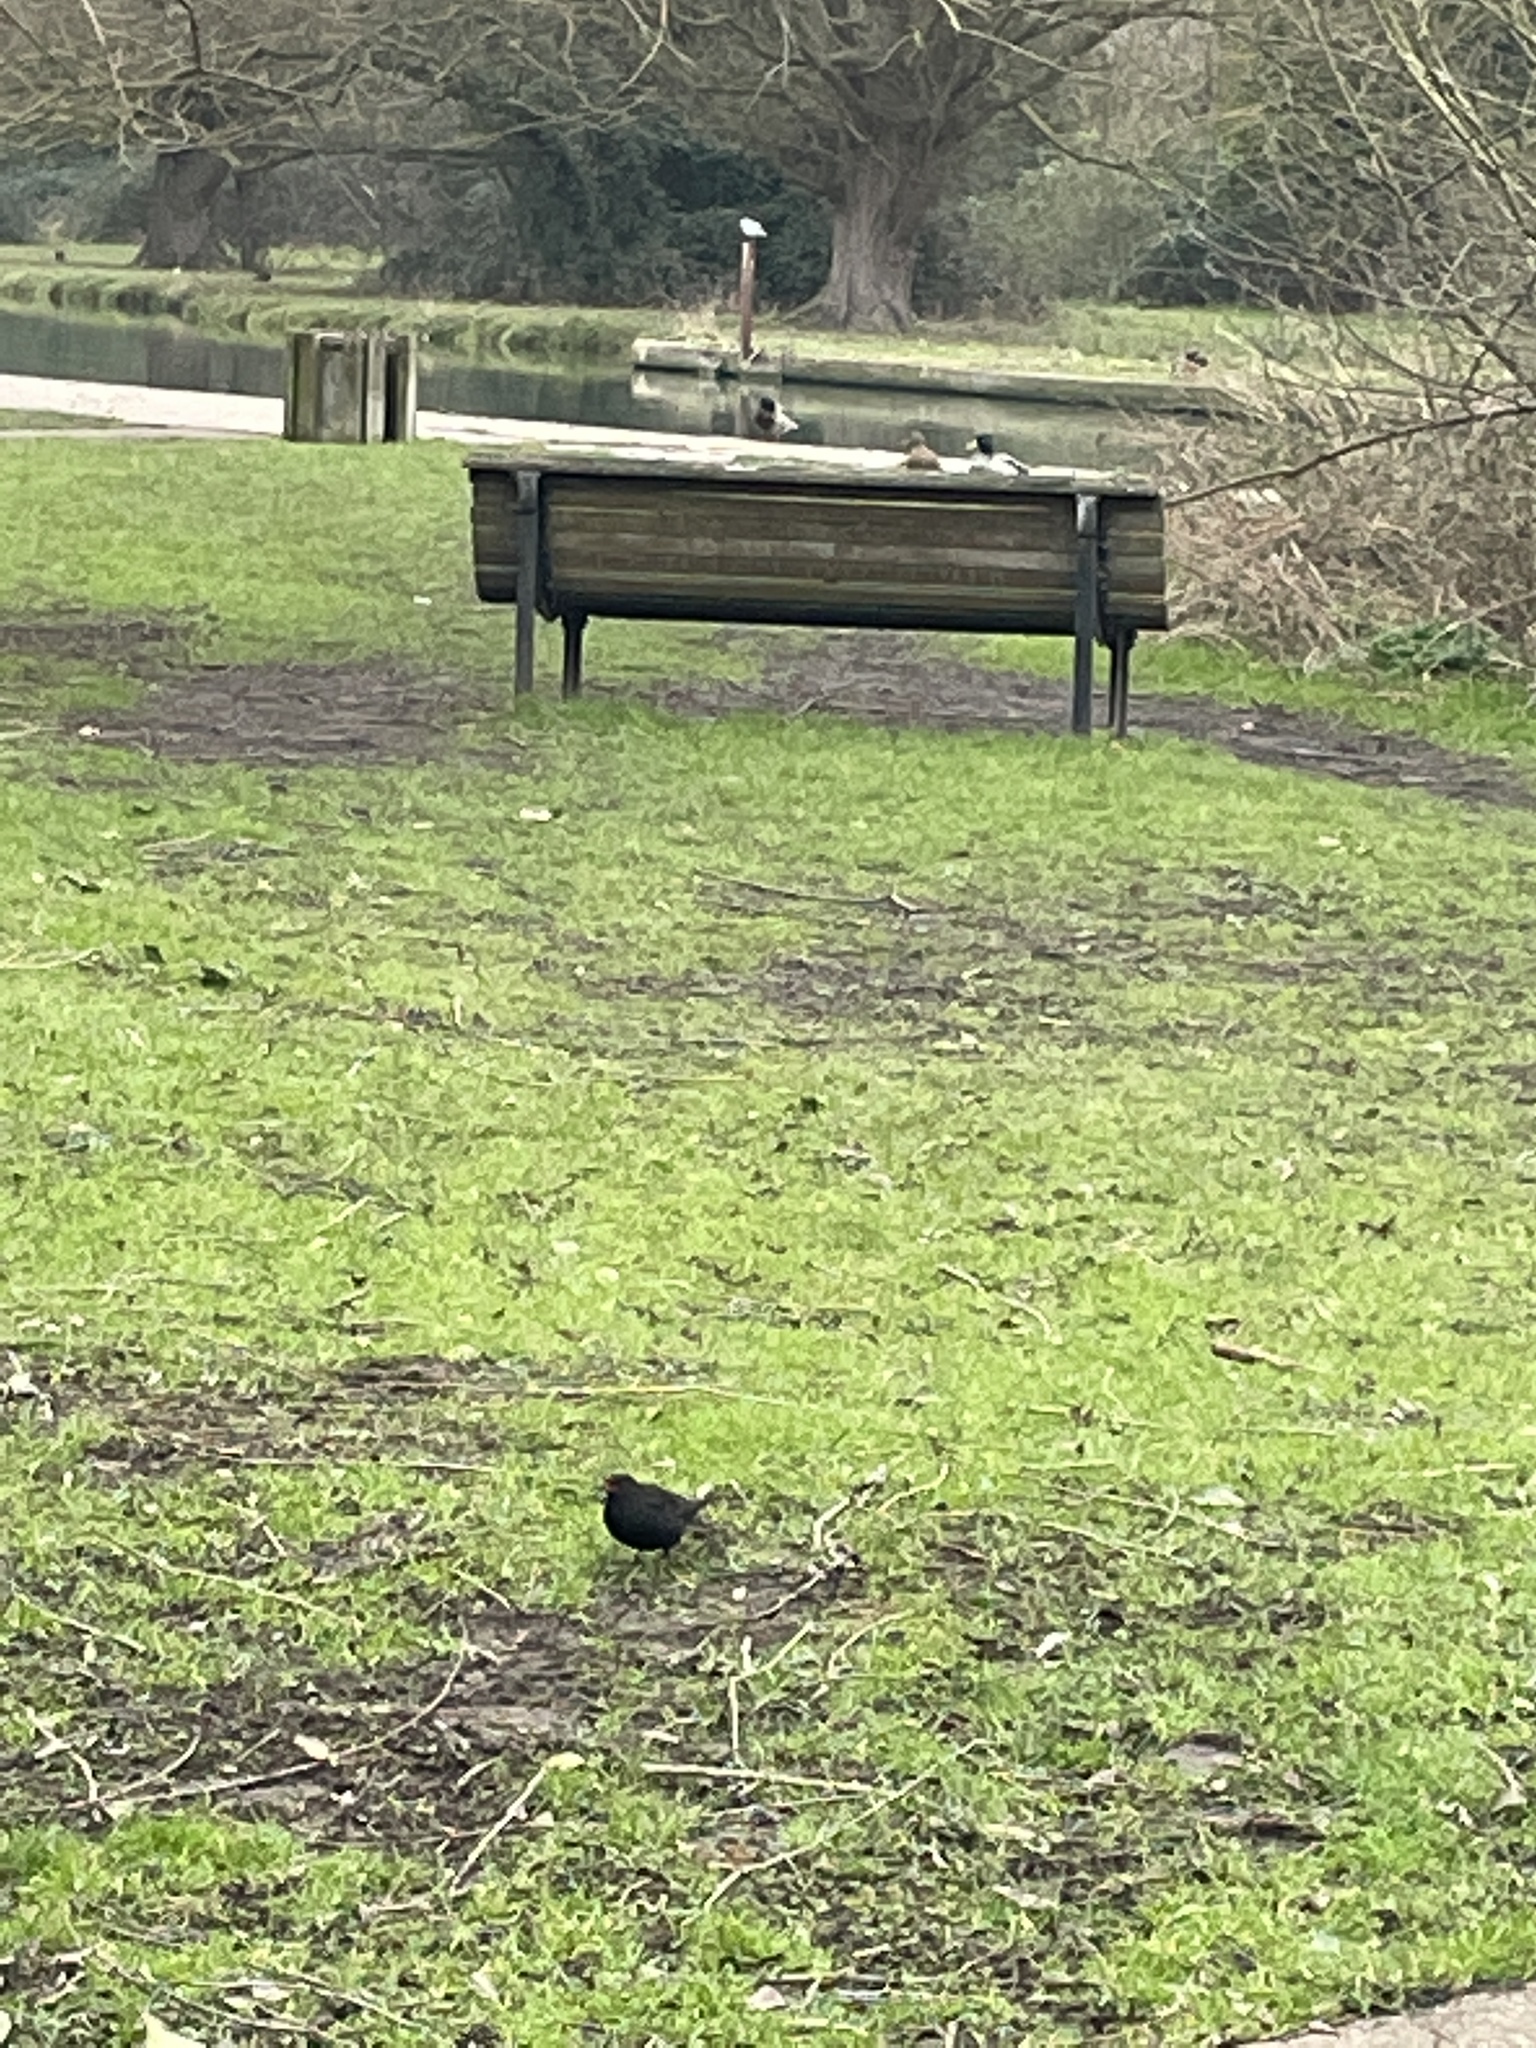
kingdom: Animalia
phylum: Chordata
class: Aves
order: Passeriformes
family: Turdidae
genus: Turdus
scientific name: Turdus merula
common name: Common blackbird
